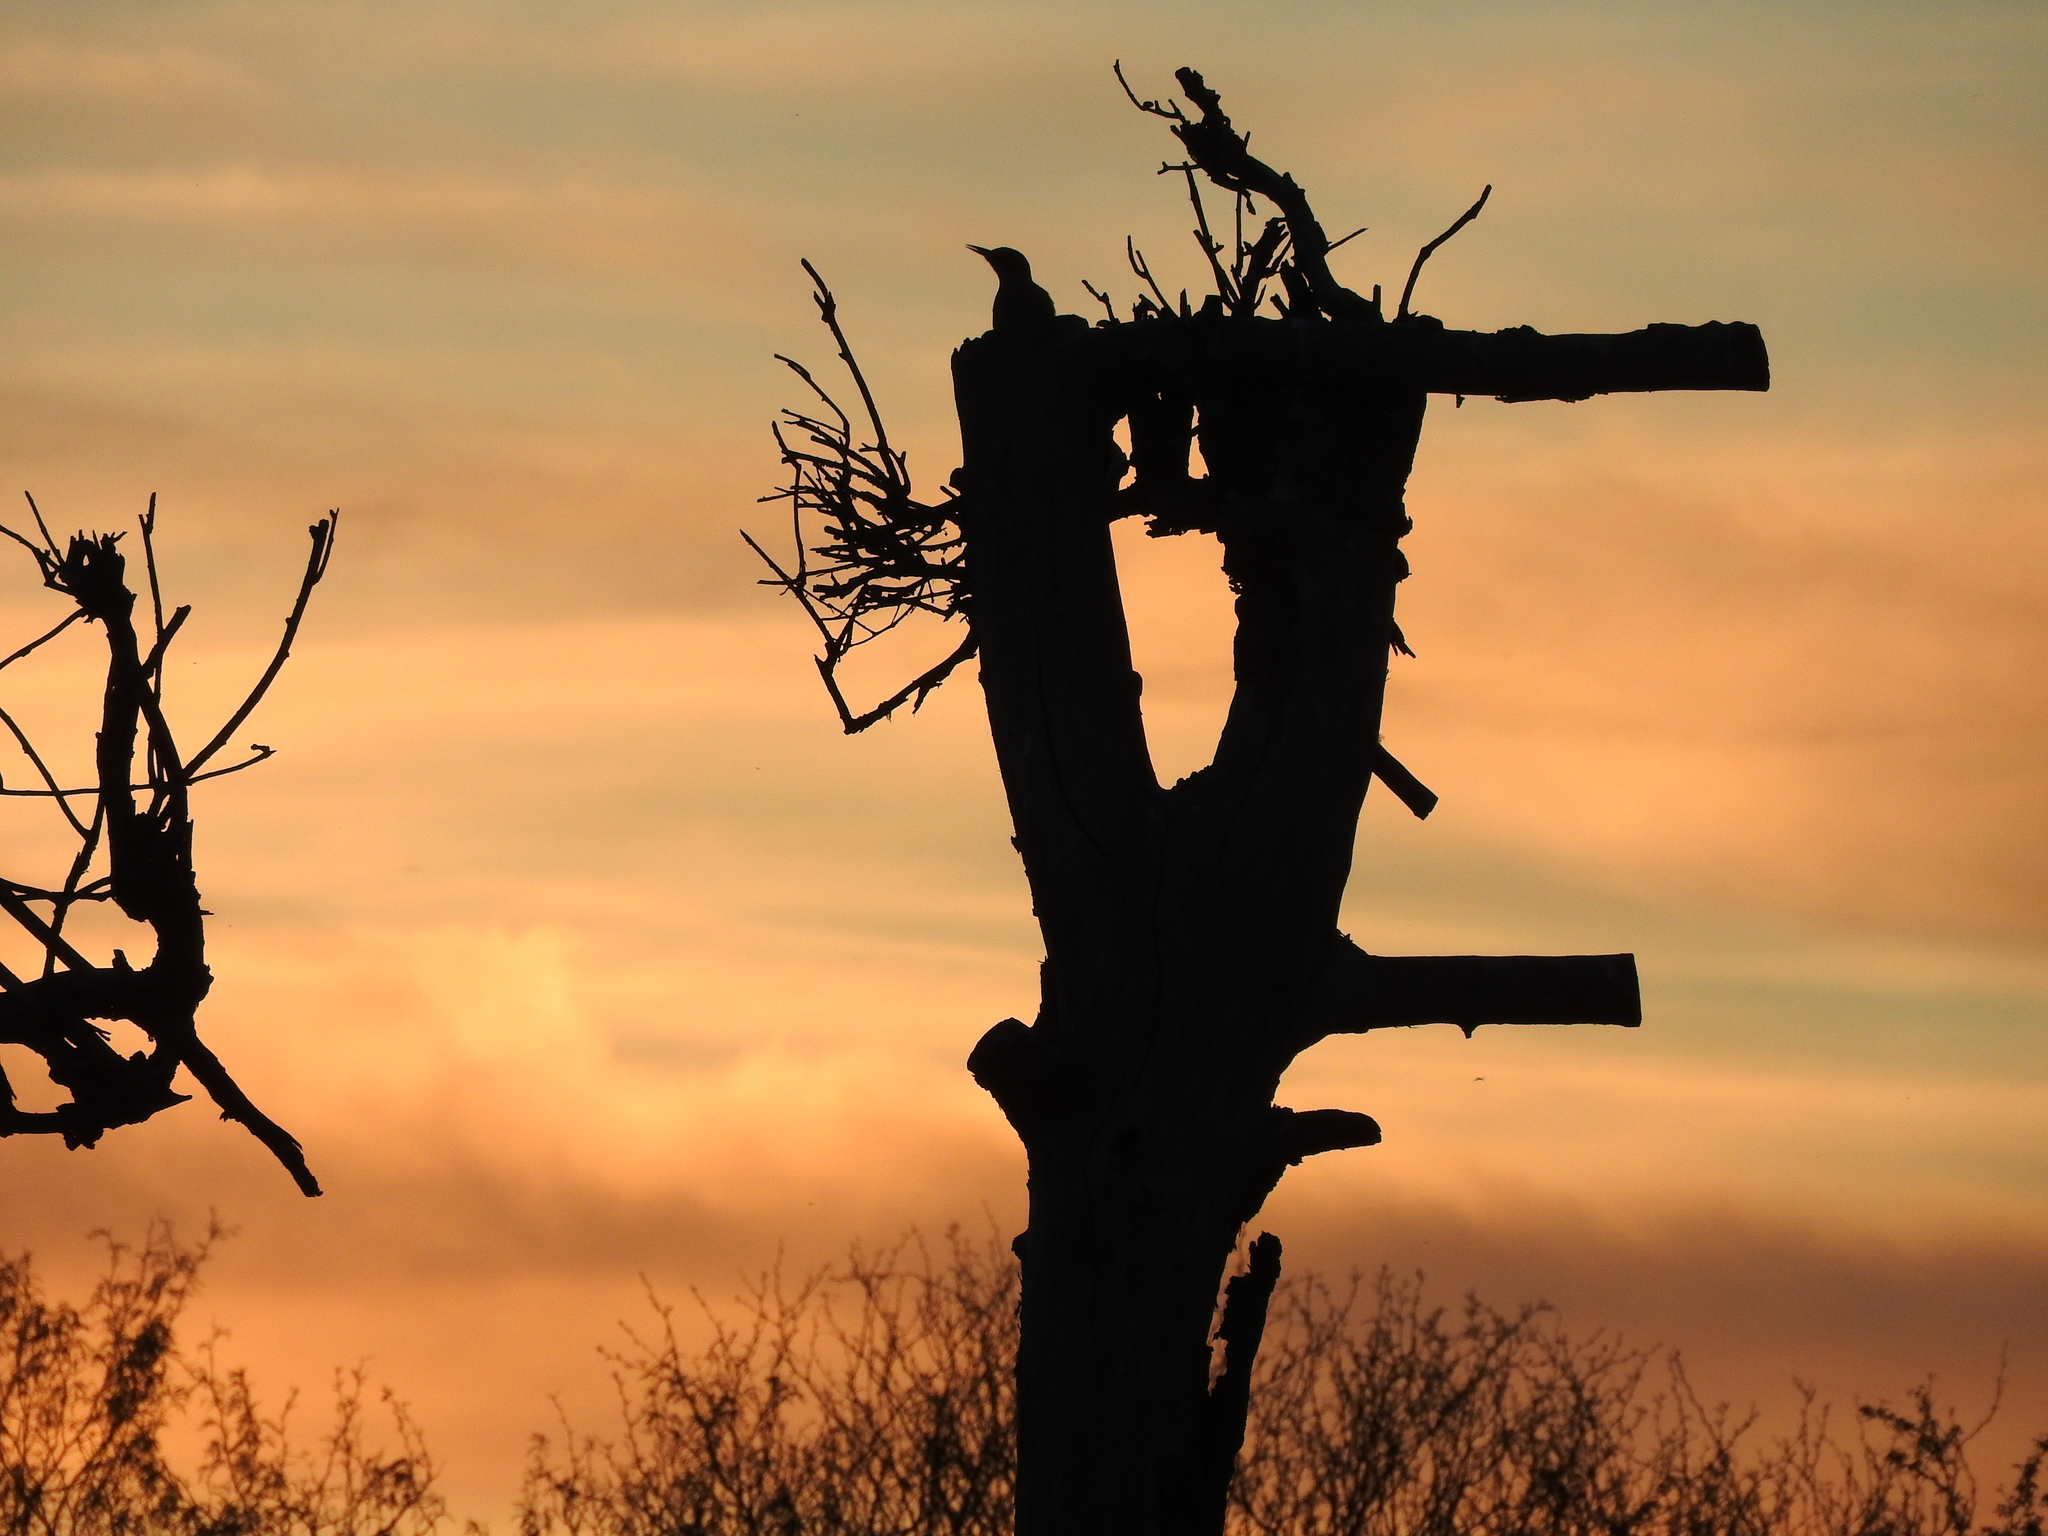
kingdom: Animalia
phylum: Chordata
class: Aves
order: Piciformes
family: Picidae
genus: Melanerpes
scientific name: Melanerpes aurifrons
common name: Golden-fronted woodpecker
